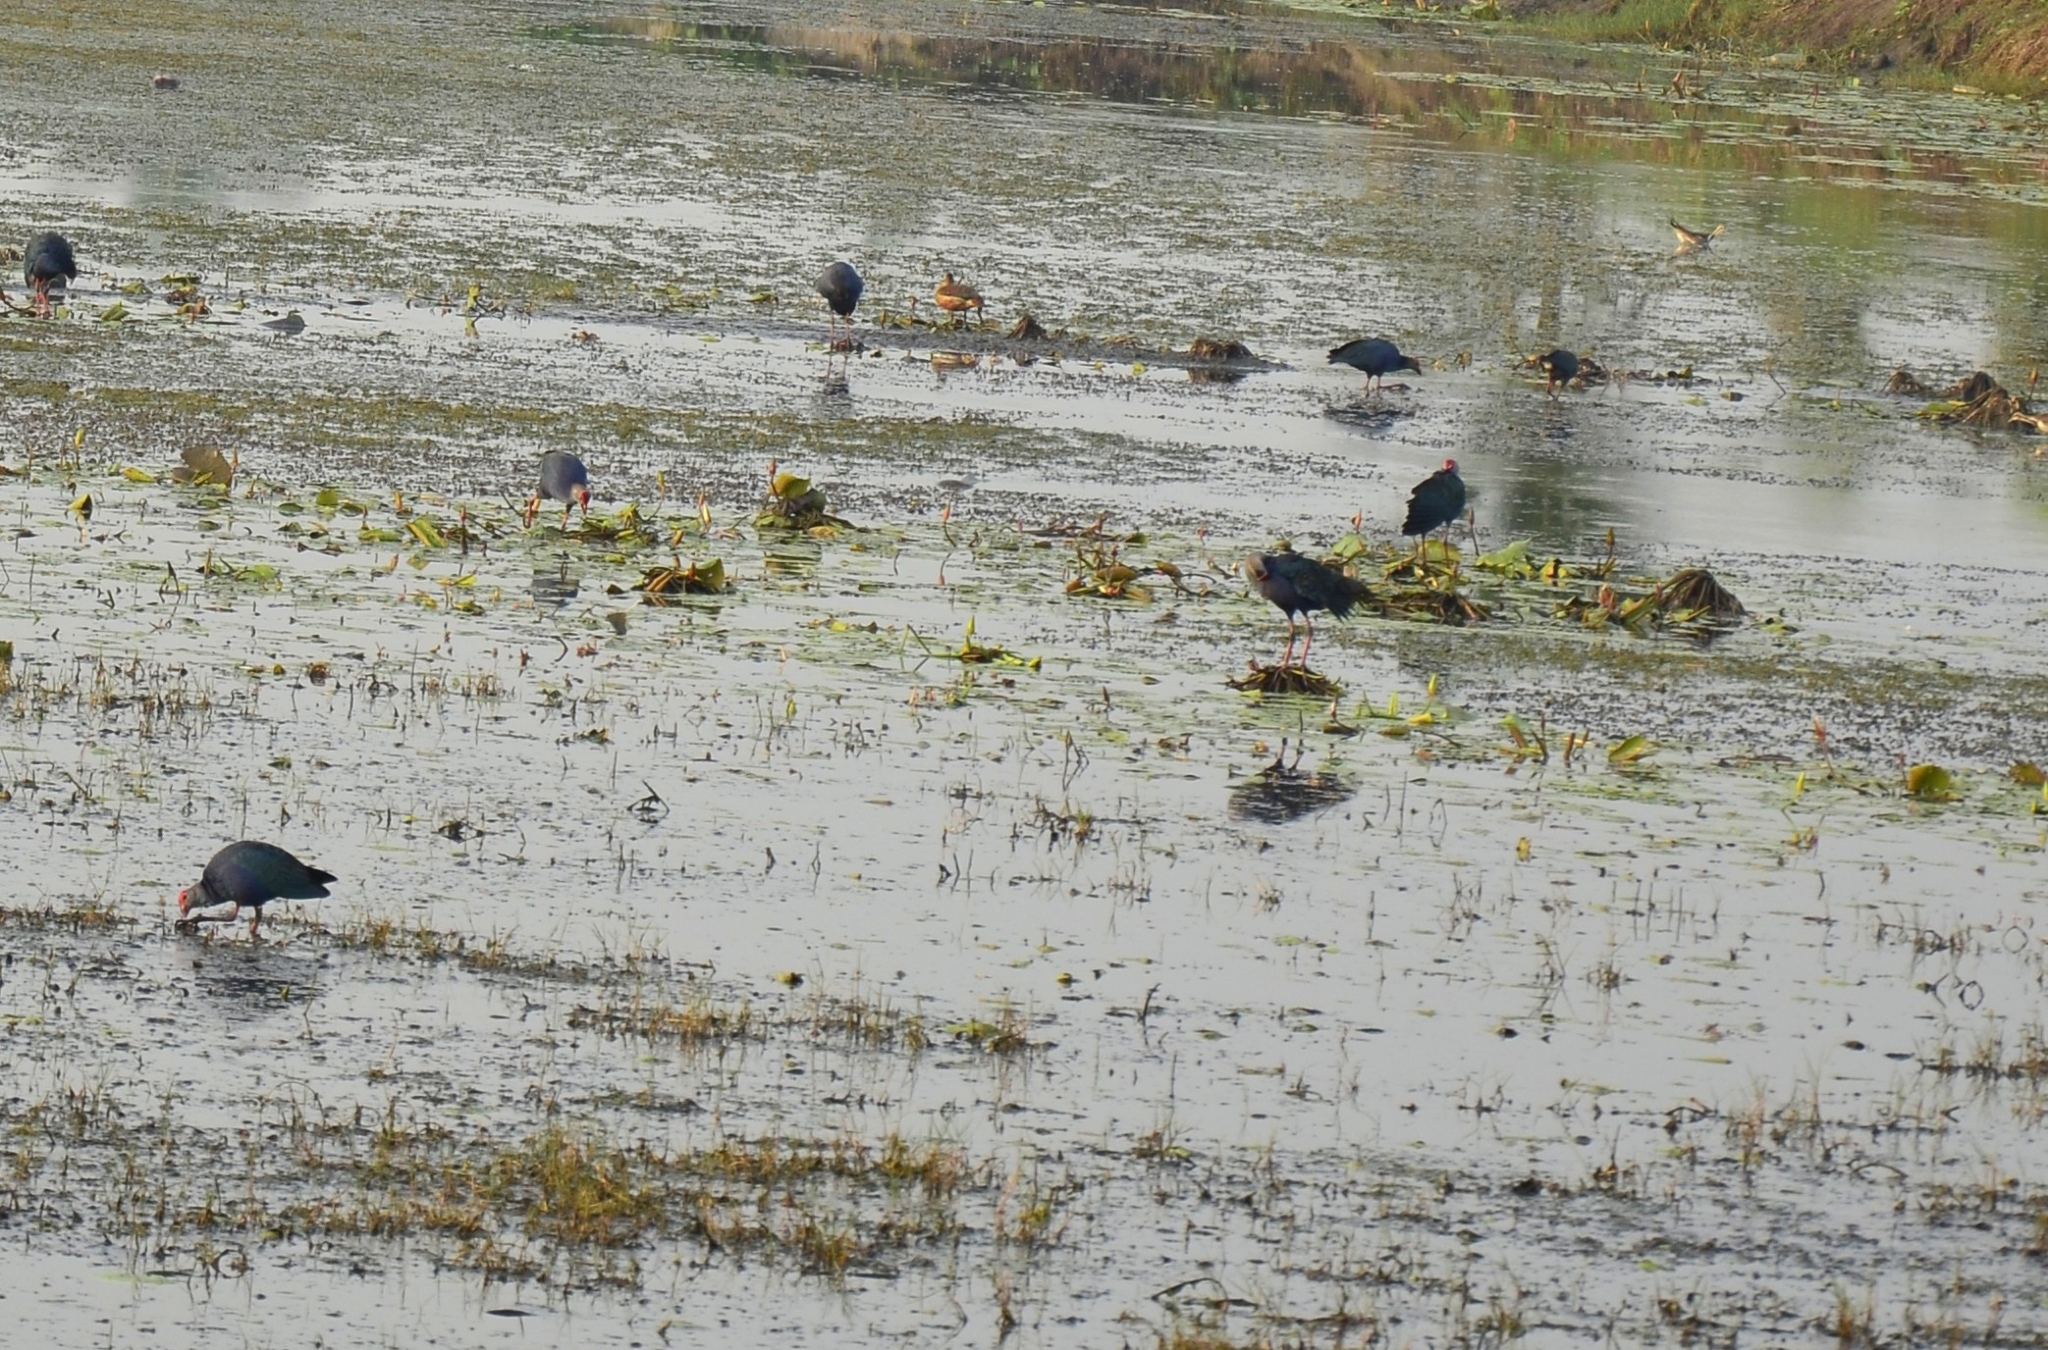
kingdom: Animalia
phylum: Chordata
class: Aves
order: Gruiformes
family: Rallidae
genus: Porphyrio
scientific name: Porphyrio porphyrio
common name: Purple swamphen
